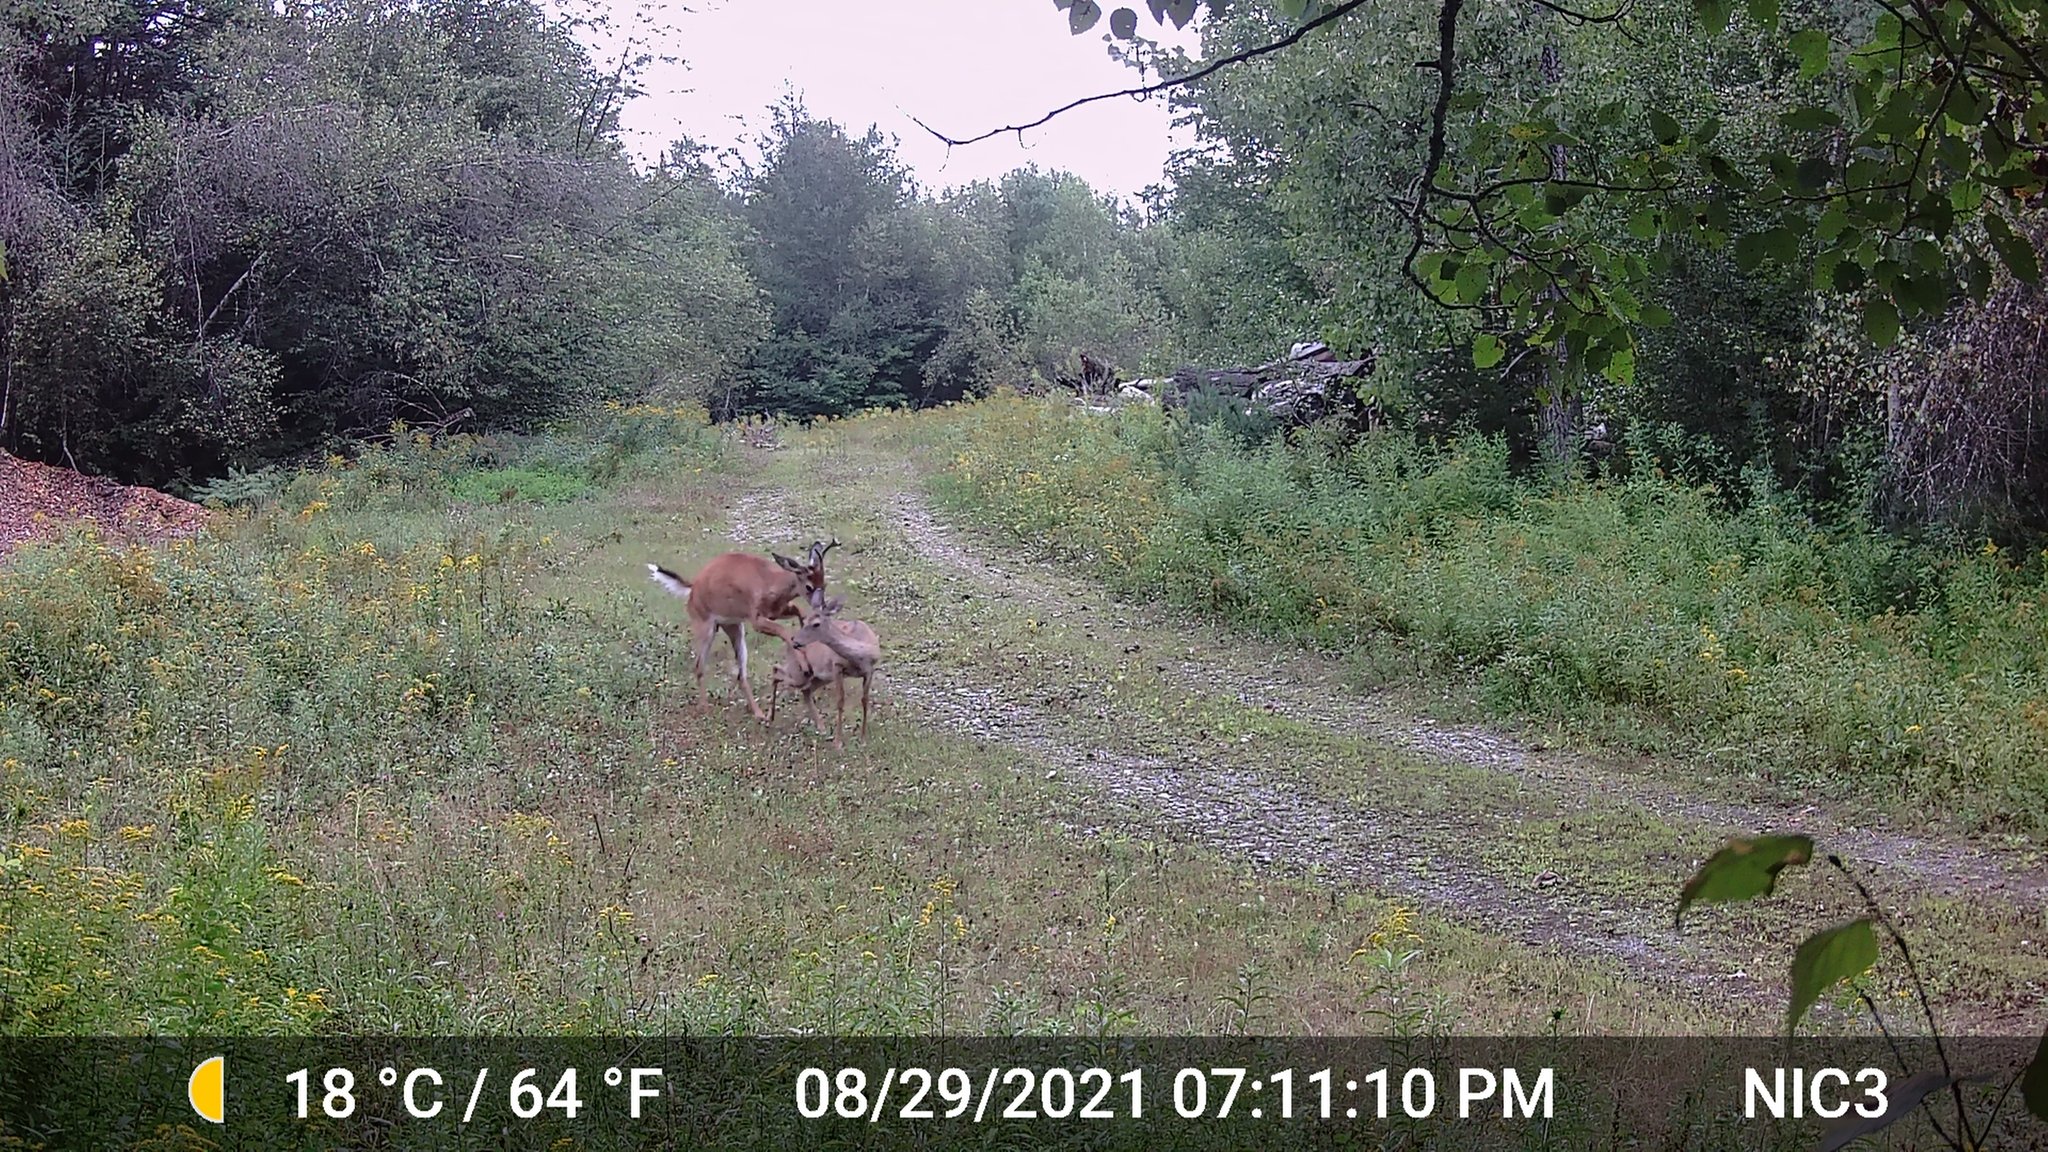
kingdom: Animalia
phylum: Chordata
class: Mammalia
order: Artiodactyla
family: Cervidae
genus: Odocoileus
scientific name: Odocoileus virginianus
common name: White-tailed deer
